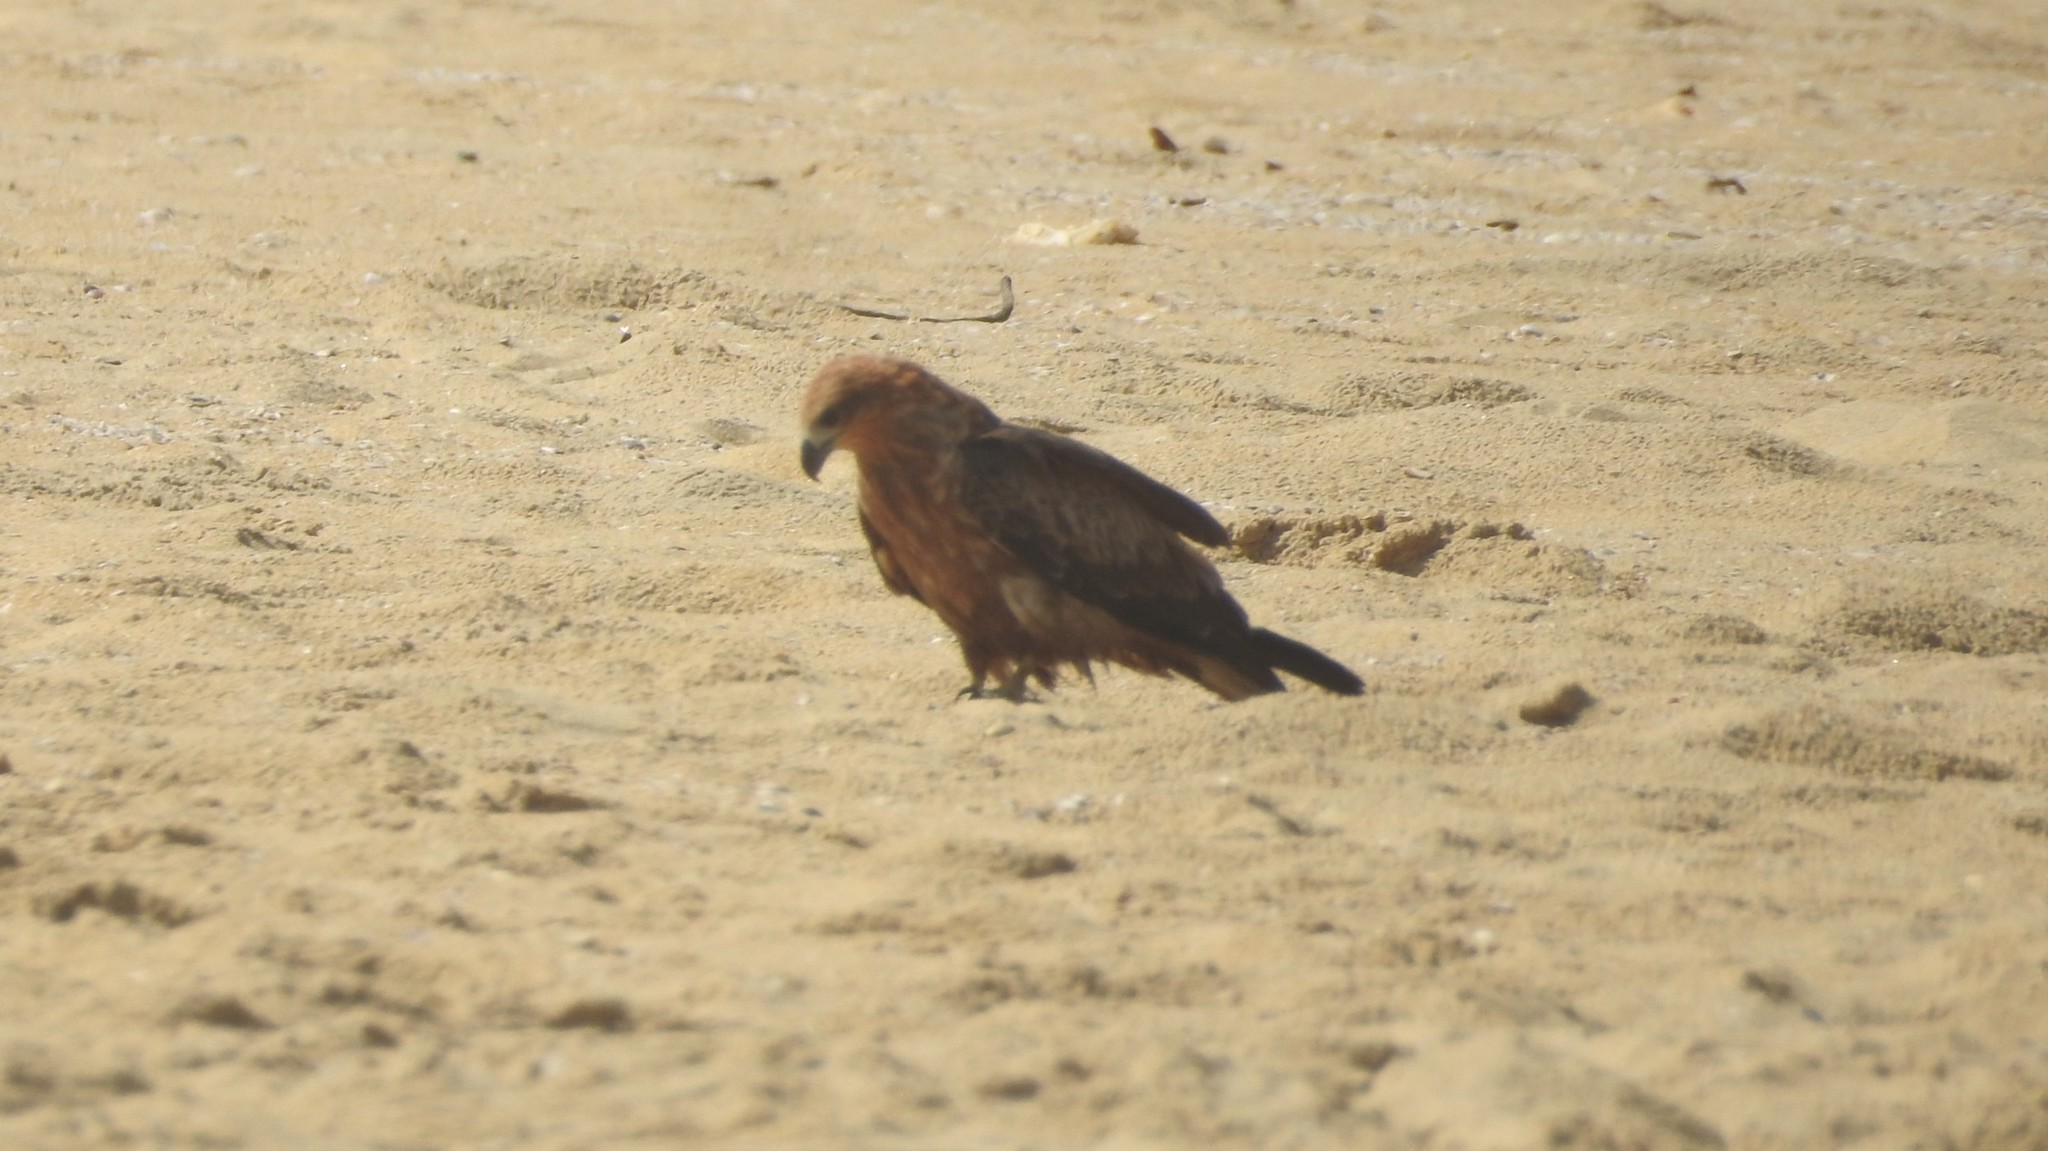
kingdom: Animalia
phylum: Chordata
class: Aves
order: Accipitriformes
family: Accipitridae
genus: Milvus
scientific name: Milvus migrans
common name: Black kite
